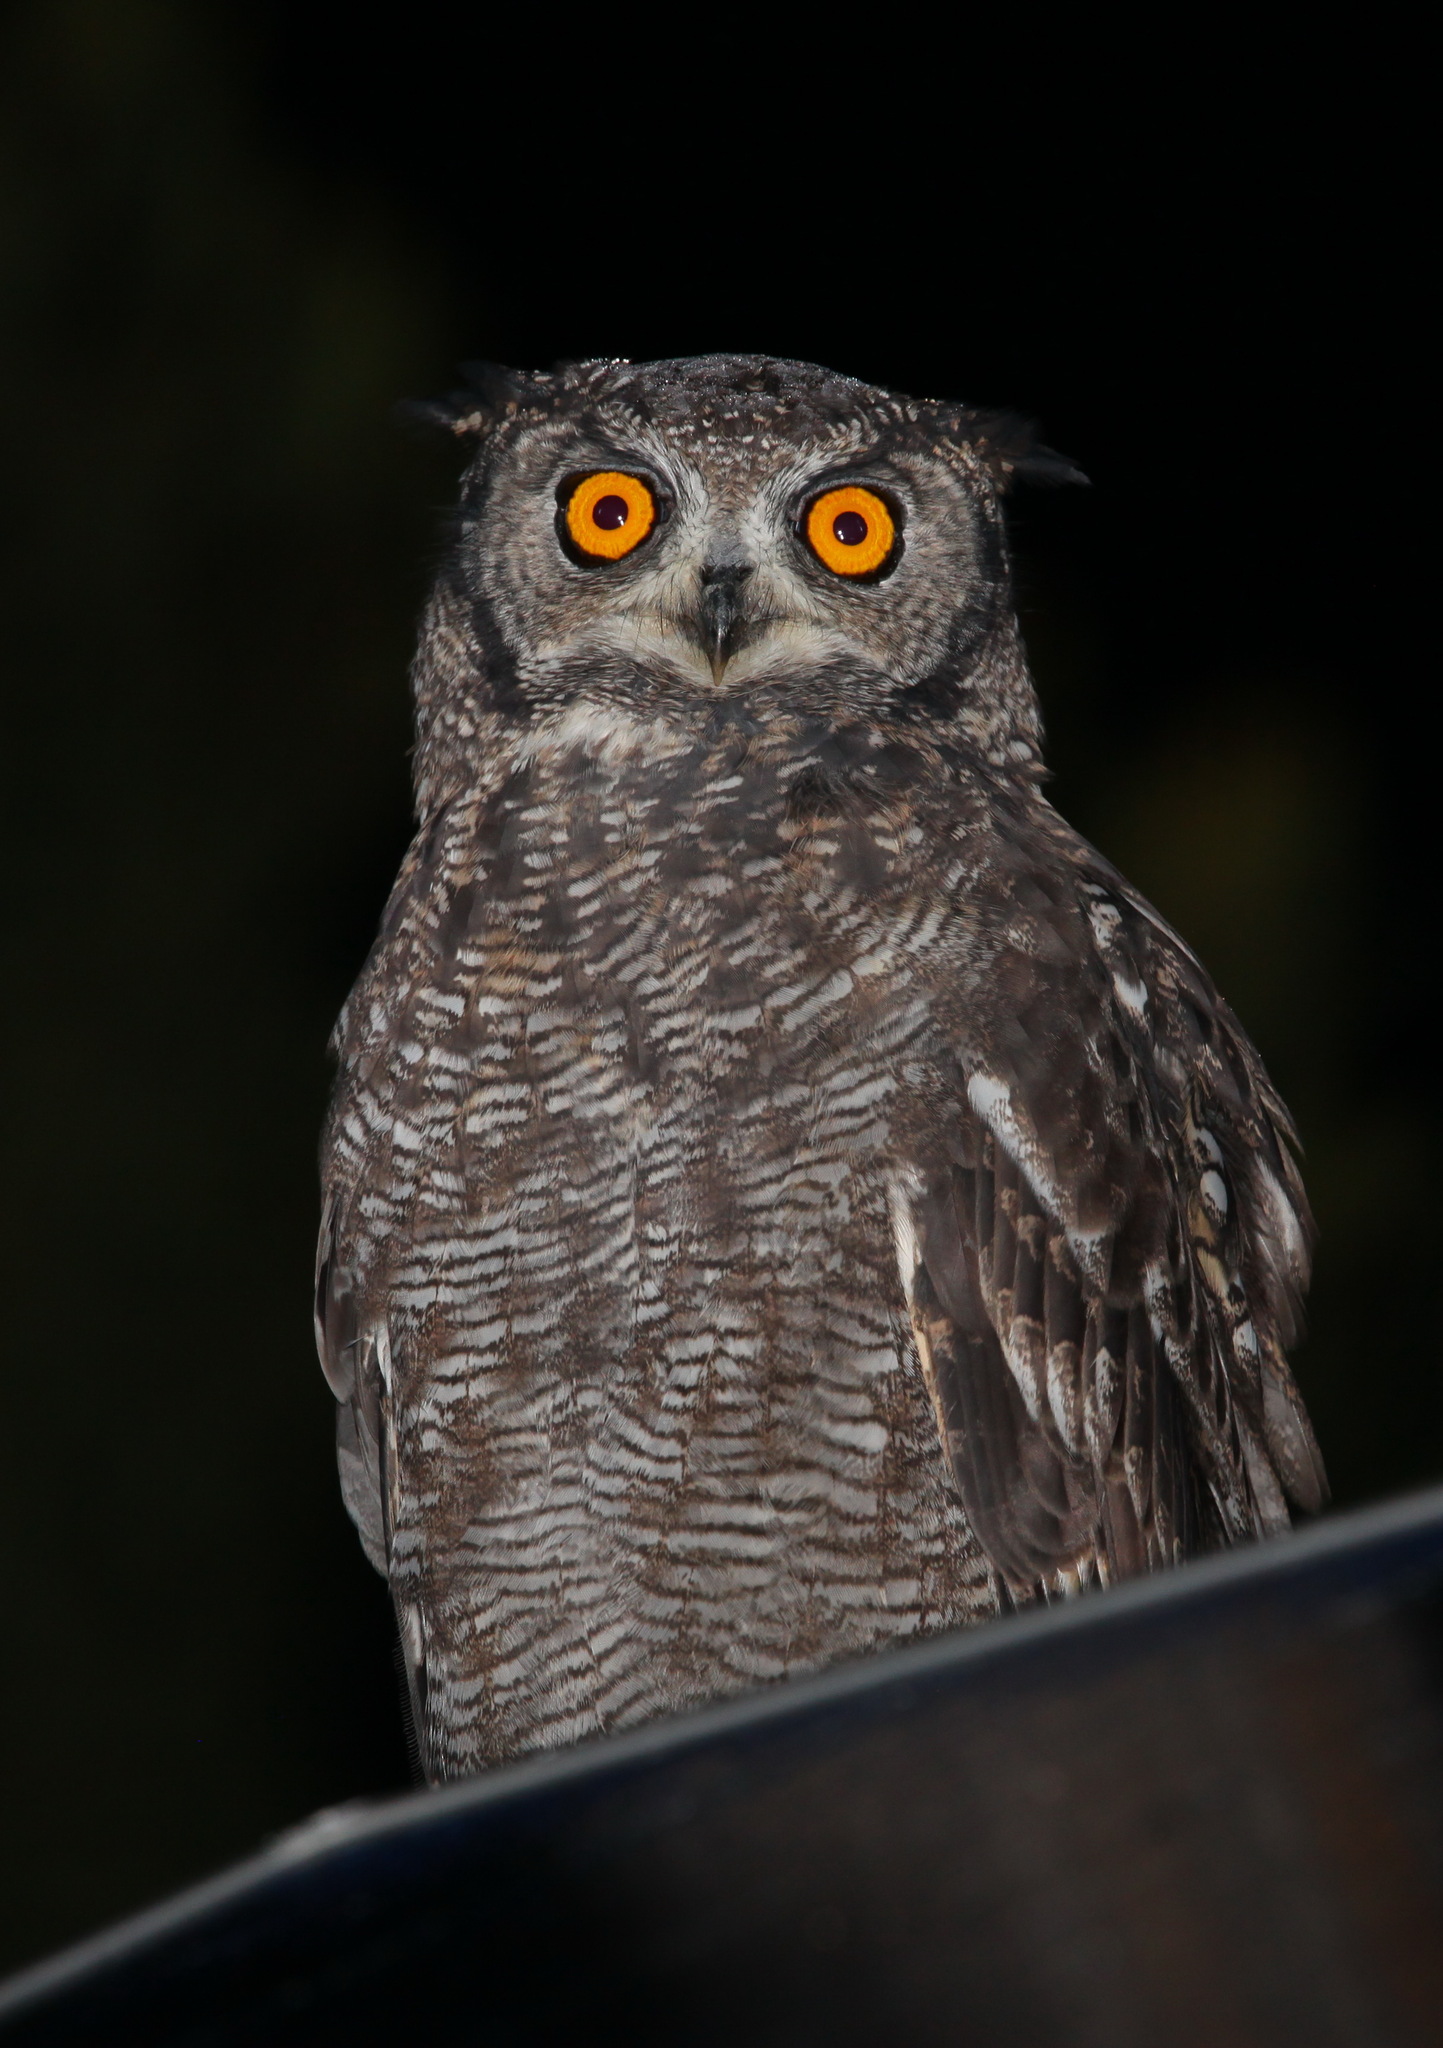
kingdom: Animalia
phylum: Chordata
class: Aves
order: Strigiformes
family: Strigidae
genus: Bubo
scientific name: Bubo africanus
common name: Spotted eagle-owl
